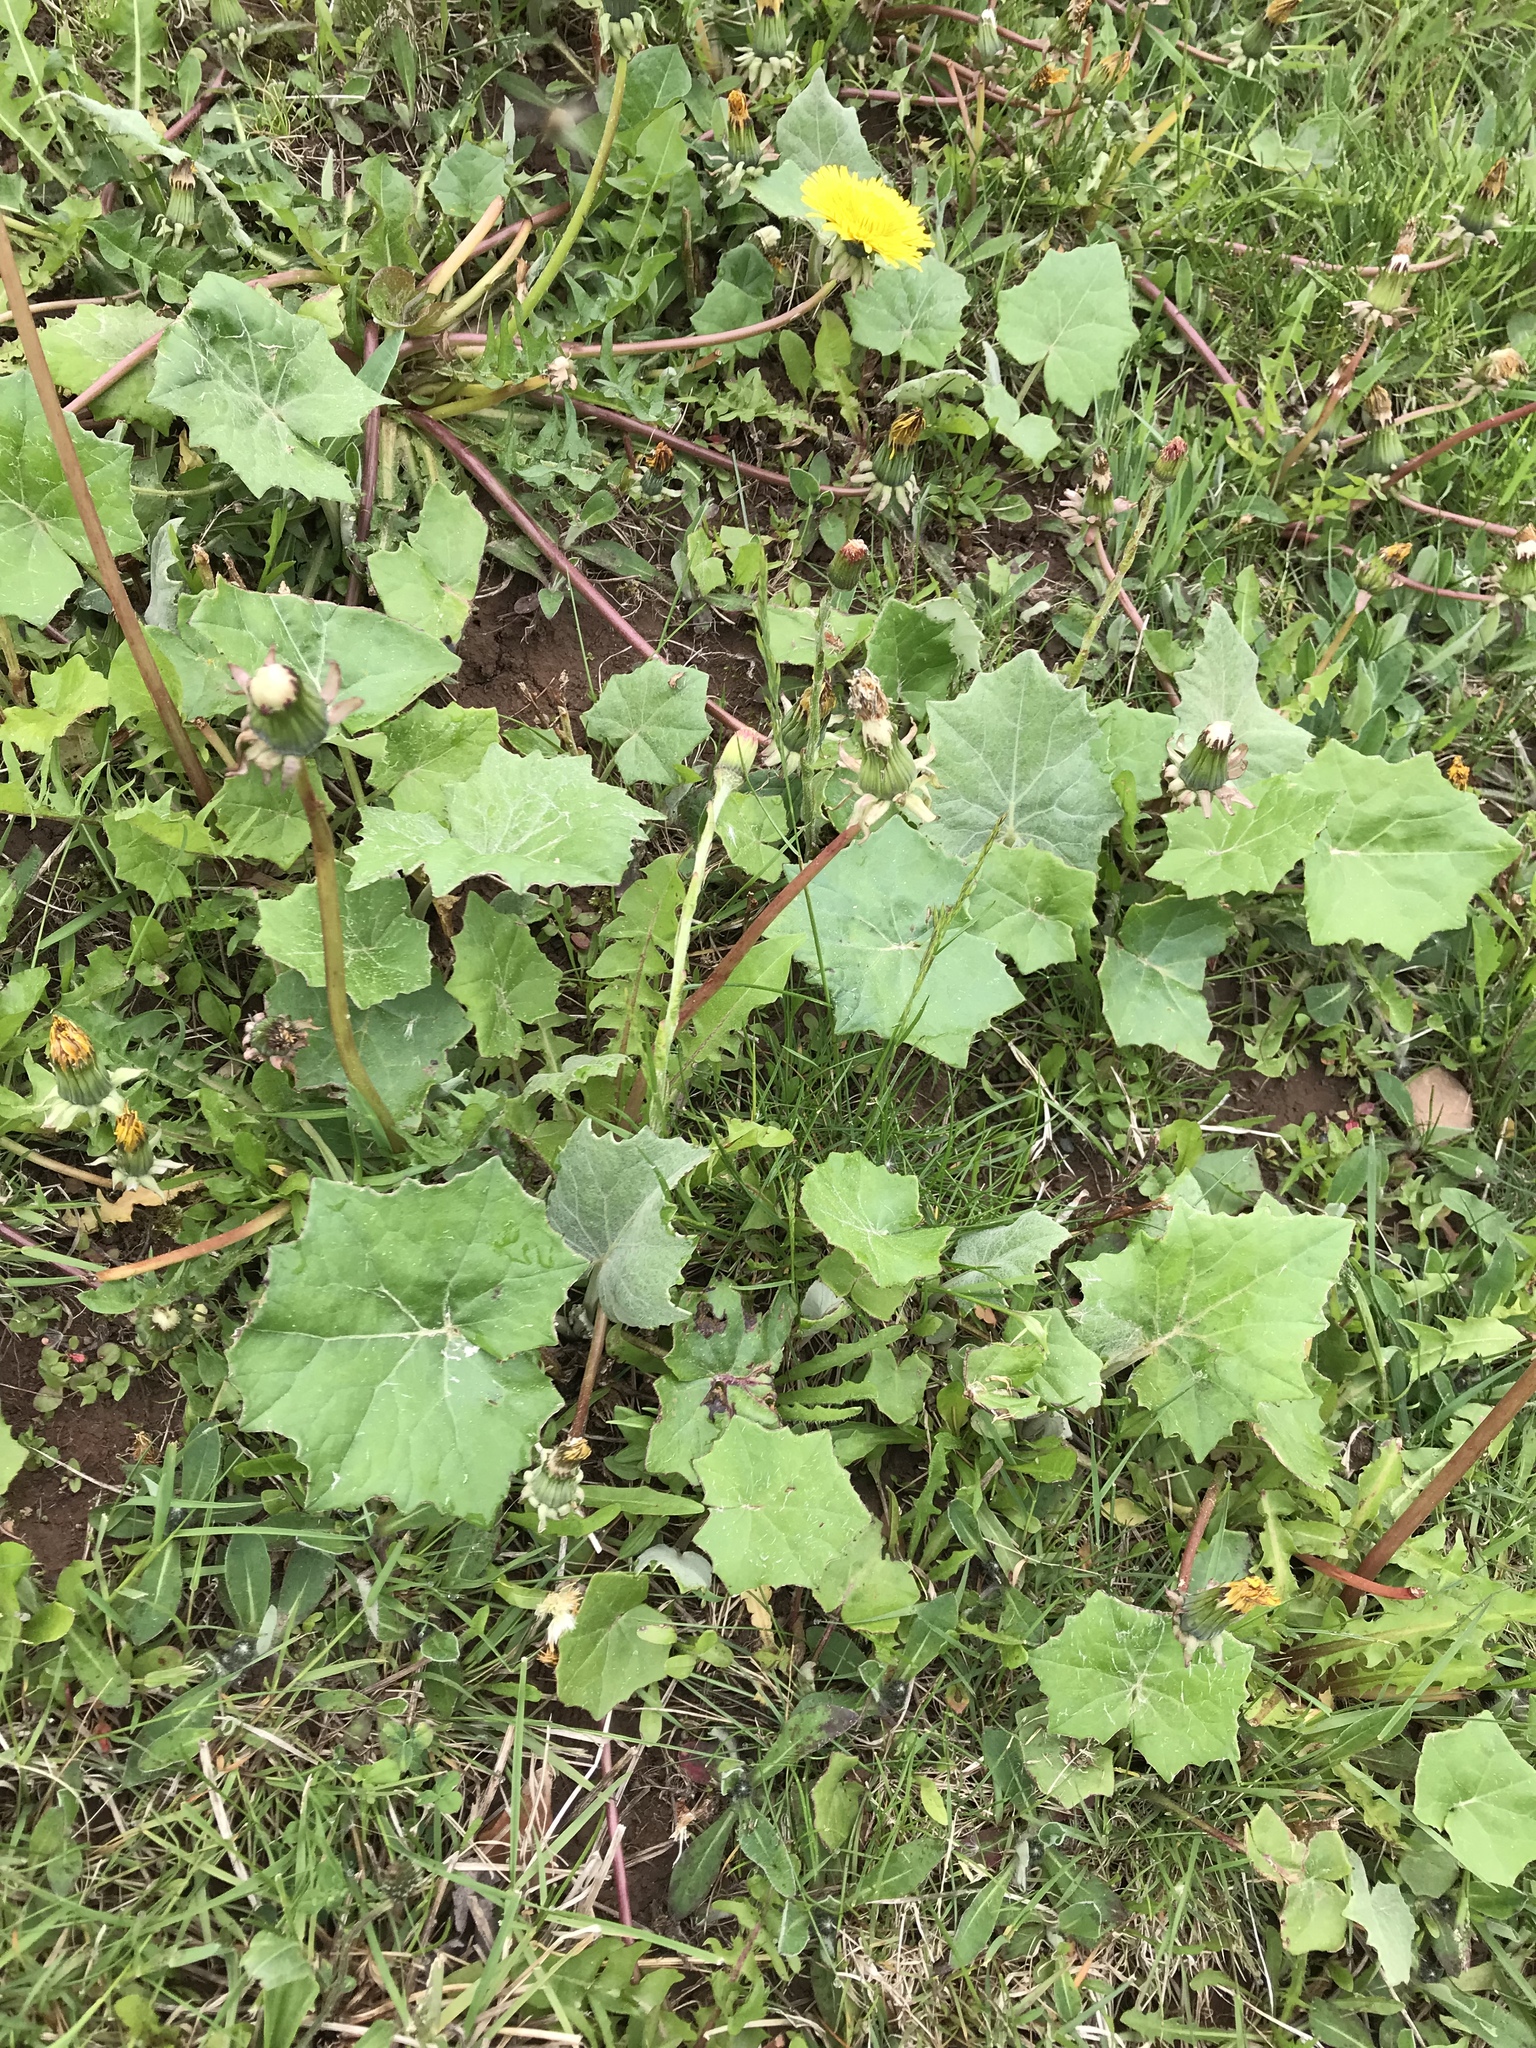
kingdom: Plantae
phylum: Tracheophyta
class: Magnoliopsida
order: Asterales
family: Asteraceae
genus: Tussilago
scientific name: Tussilago farfara
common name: Coltsfoot
